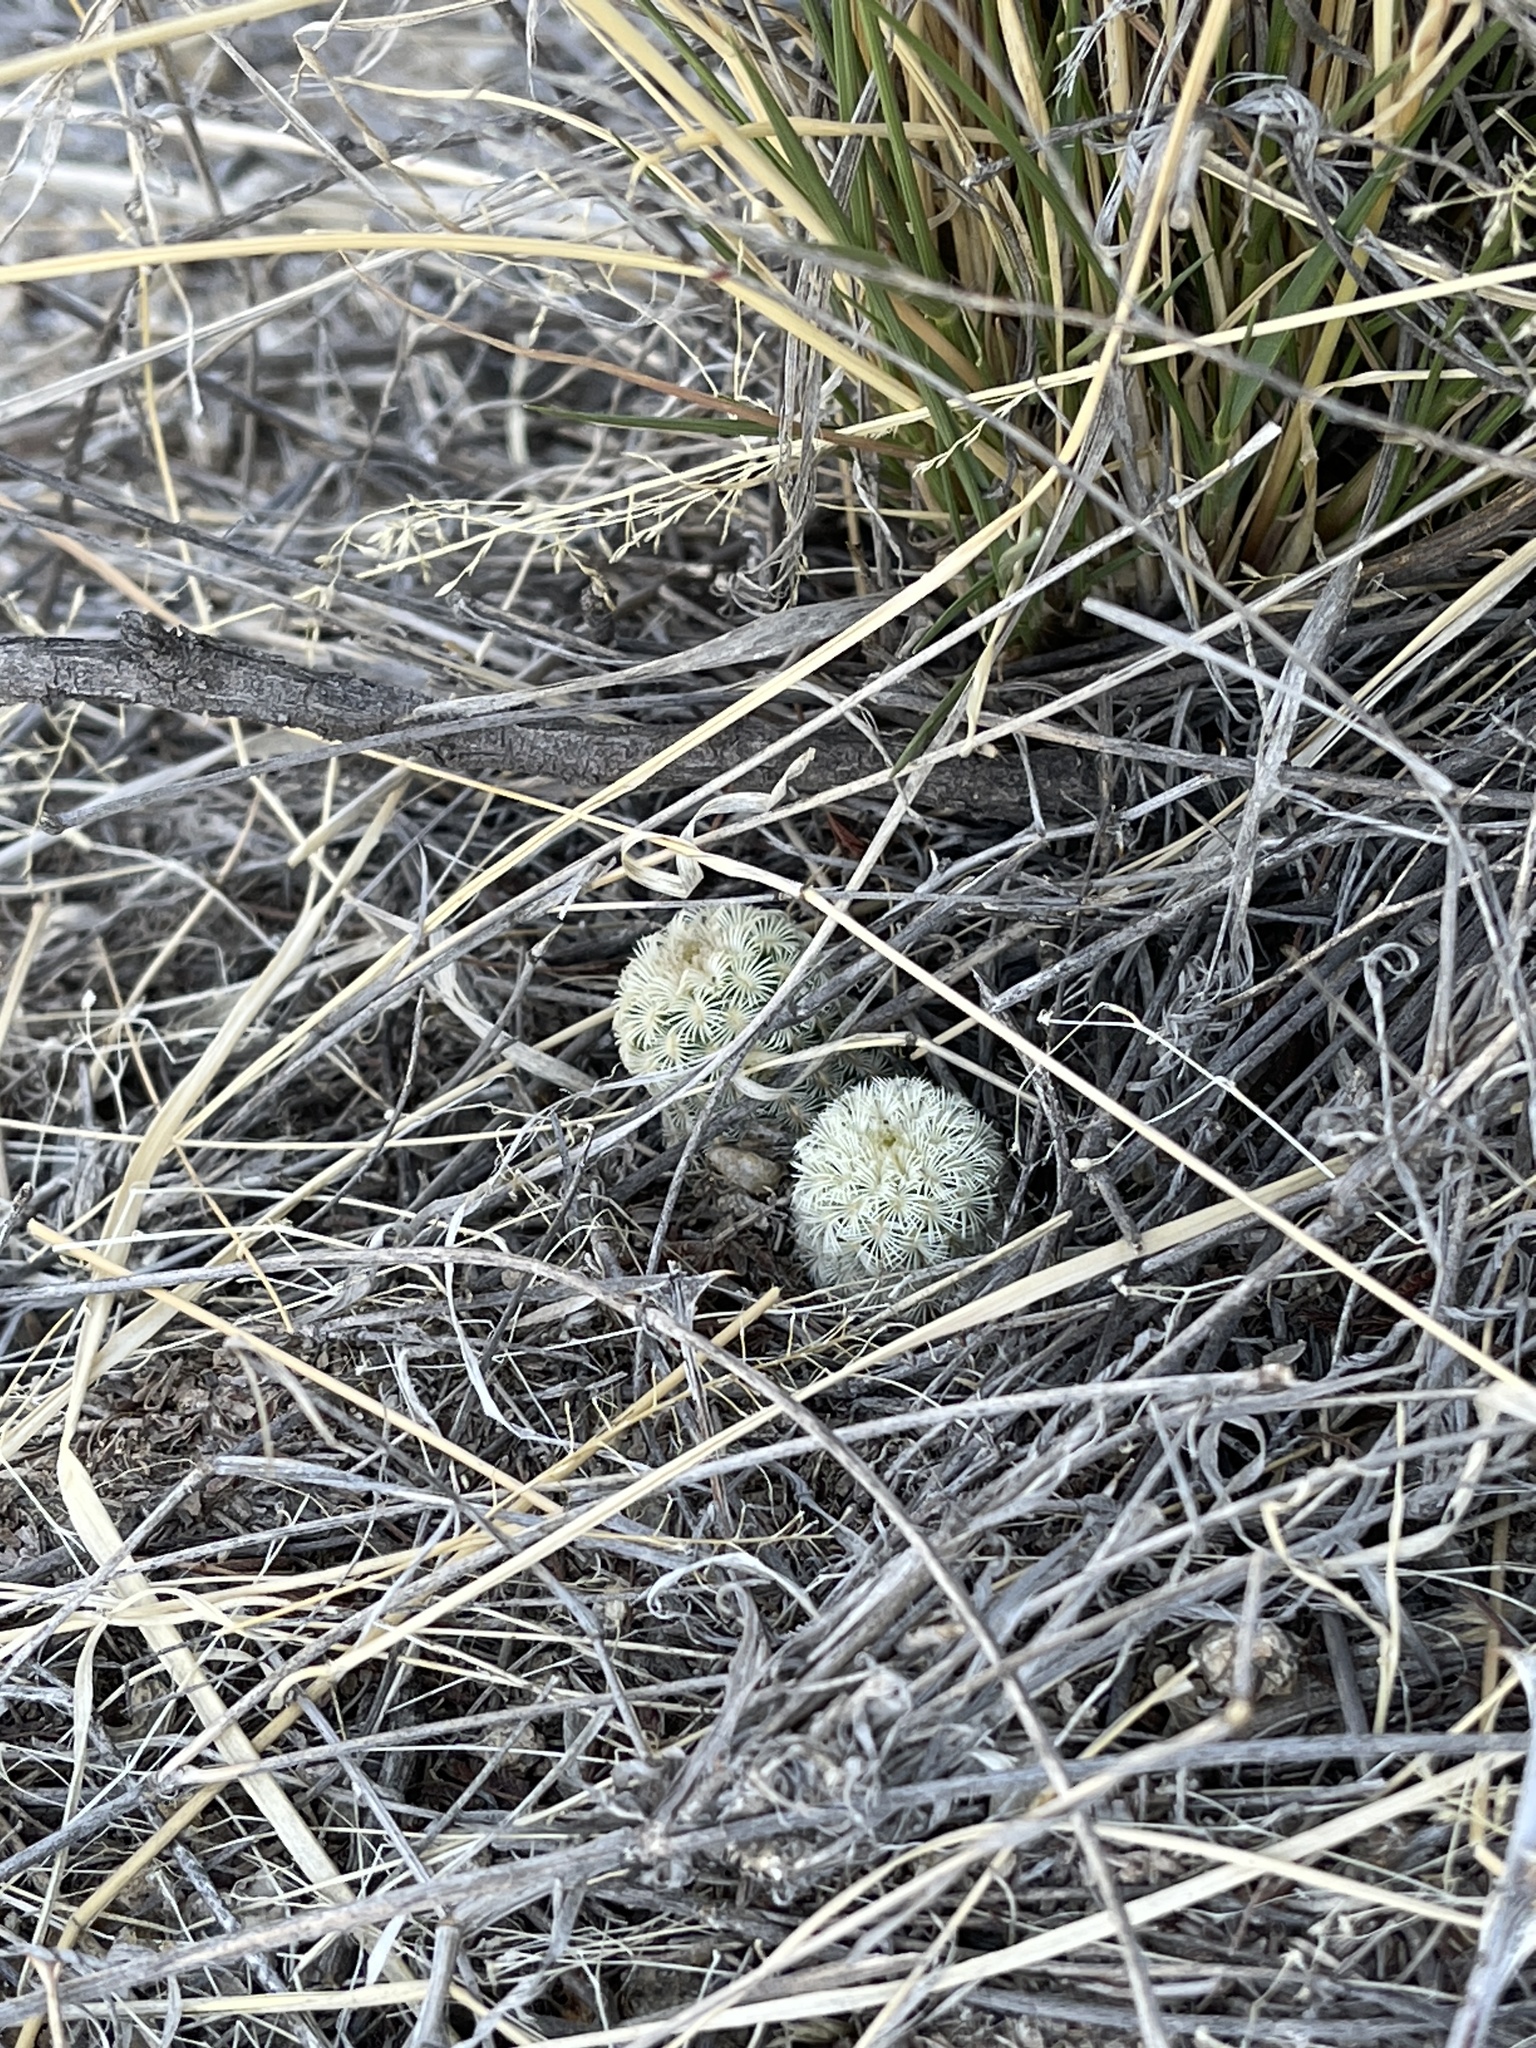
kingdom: Plantae
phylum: Tracheophyta
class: Magnoliopsida
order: Caryophyllales
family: Cactaceae
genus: Echinocereus
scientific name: Echinocereus rigidissimus
